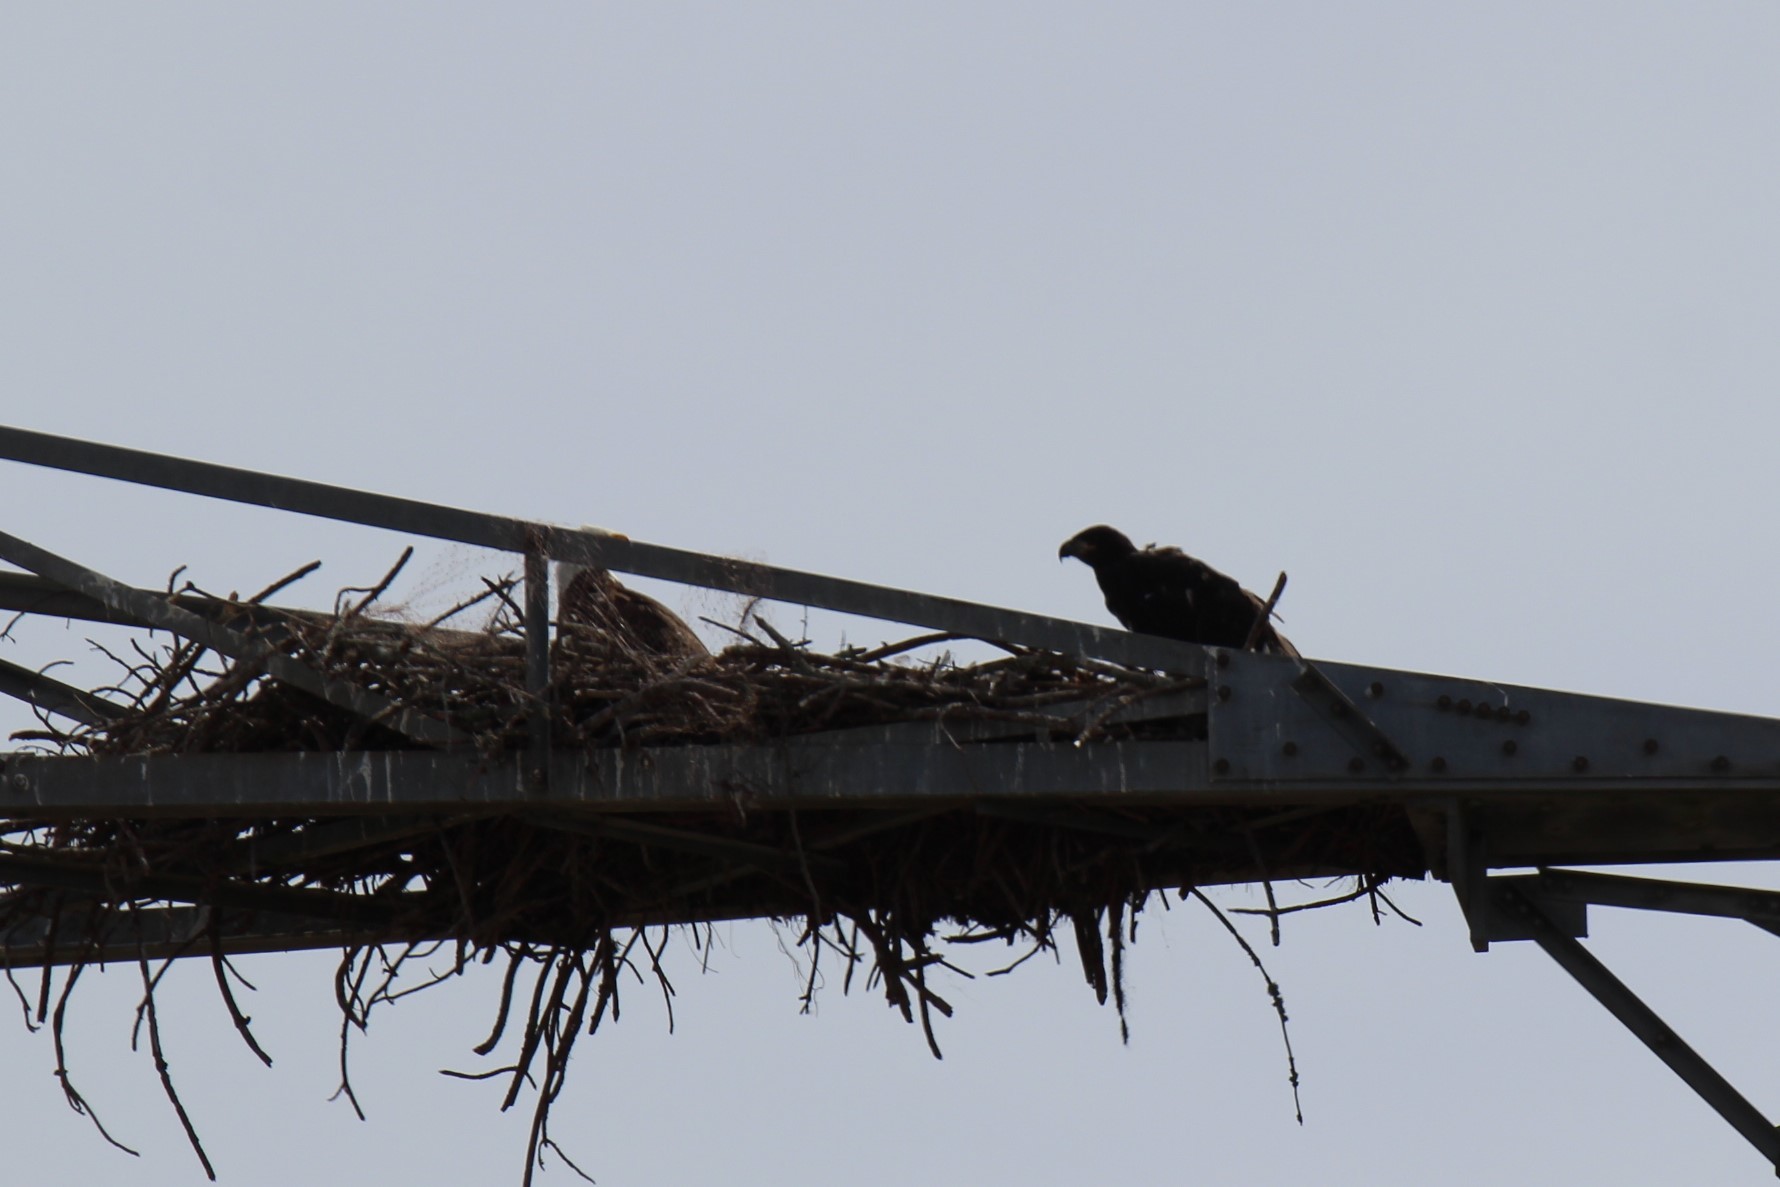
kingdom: Animalia
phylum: Chordata
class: Aves
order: Accipitriformes
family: Accipitridae
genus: Haliaeetus
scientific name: Haliaeetus leucocephalus
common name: Bald eagle
